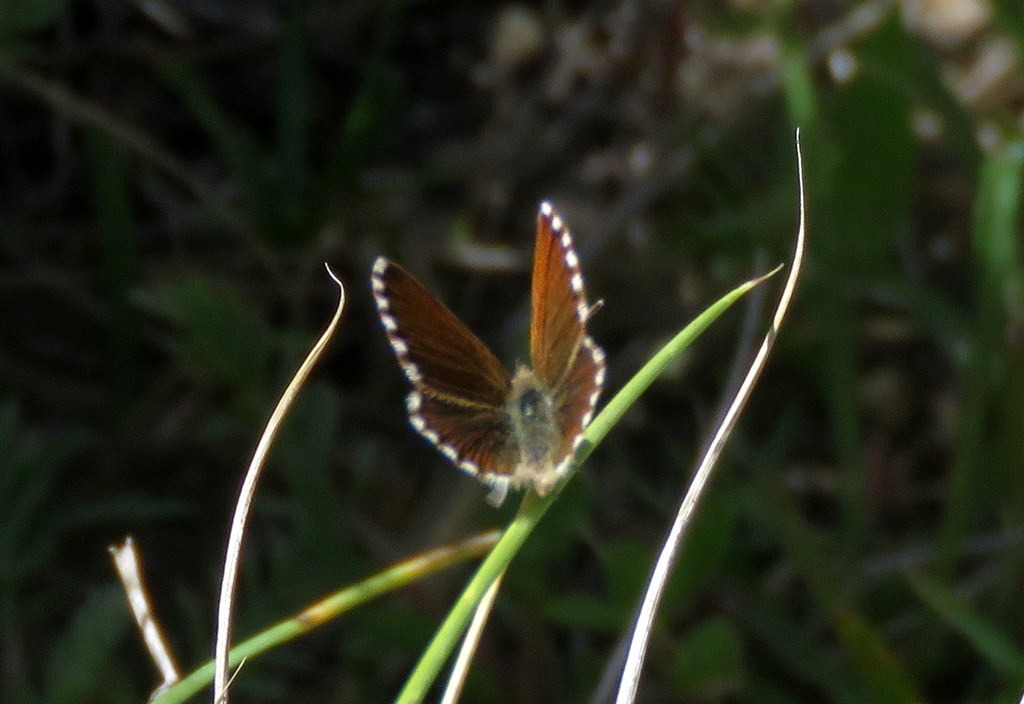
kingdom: Animalia
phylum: Arthropoda
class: Insecta
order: Lepidoptera
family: Lycaenidae
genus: Itylos
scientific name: Itylos vapa
